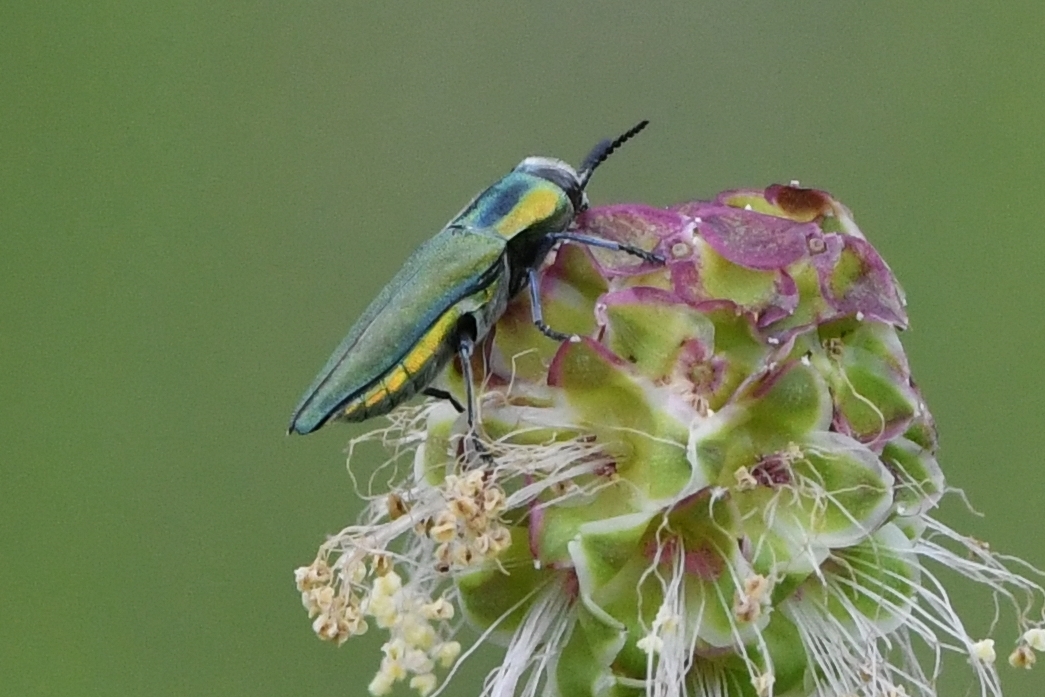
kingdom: Animalia
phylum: Arthropoda
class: Insecta
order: Coleoptera
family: Buprestidae
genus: Anthaxia
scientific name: Anthaxia hungarica
